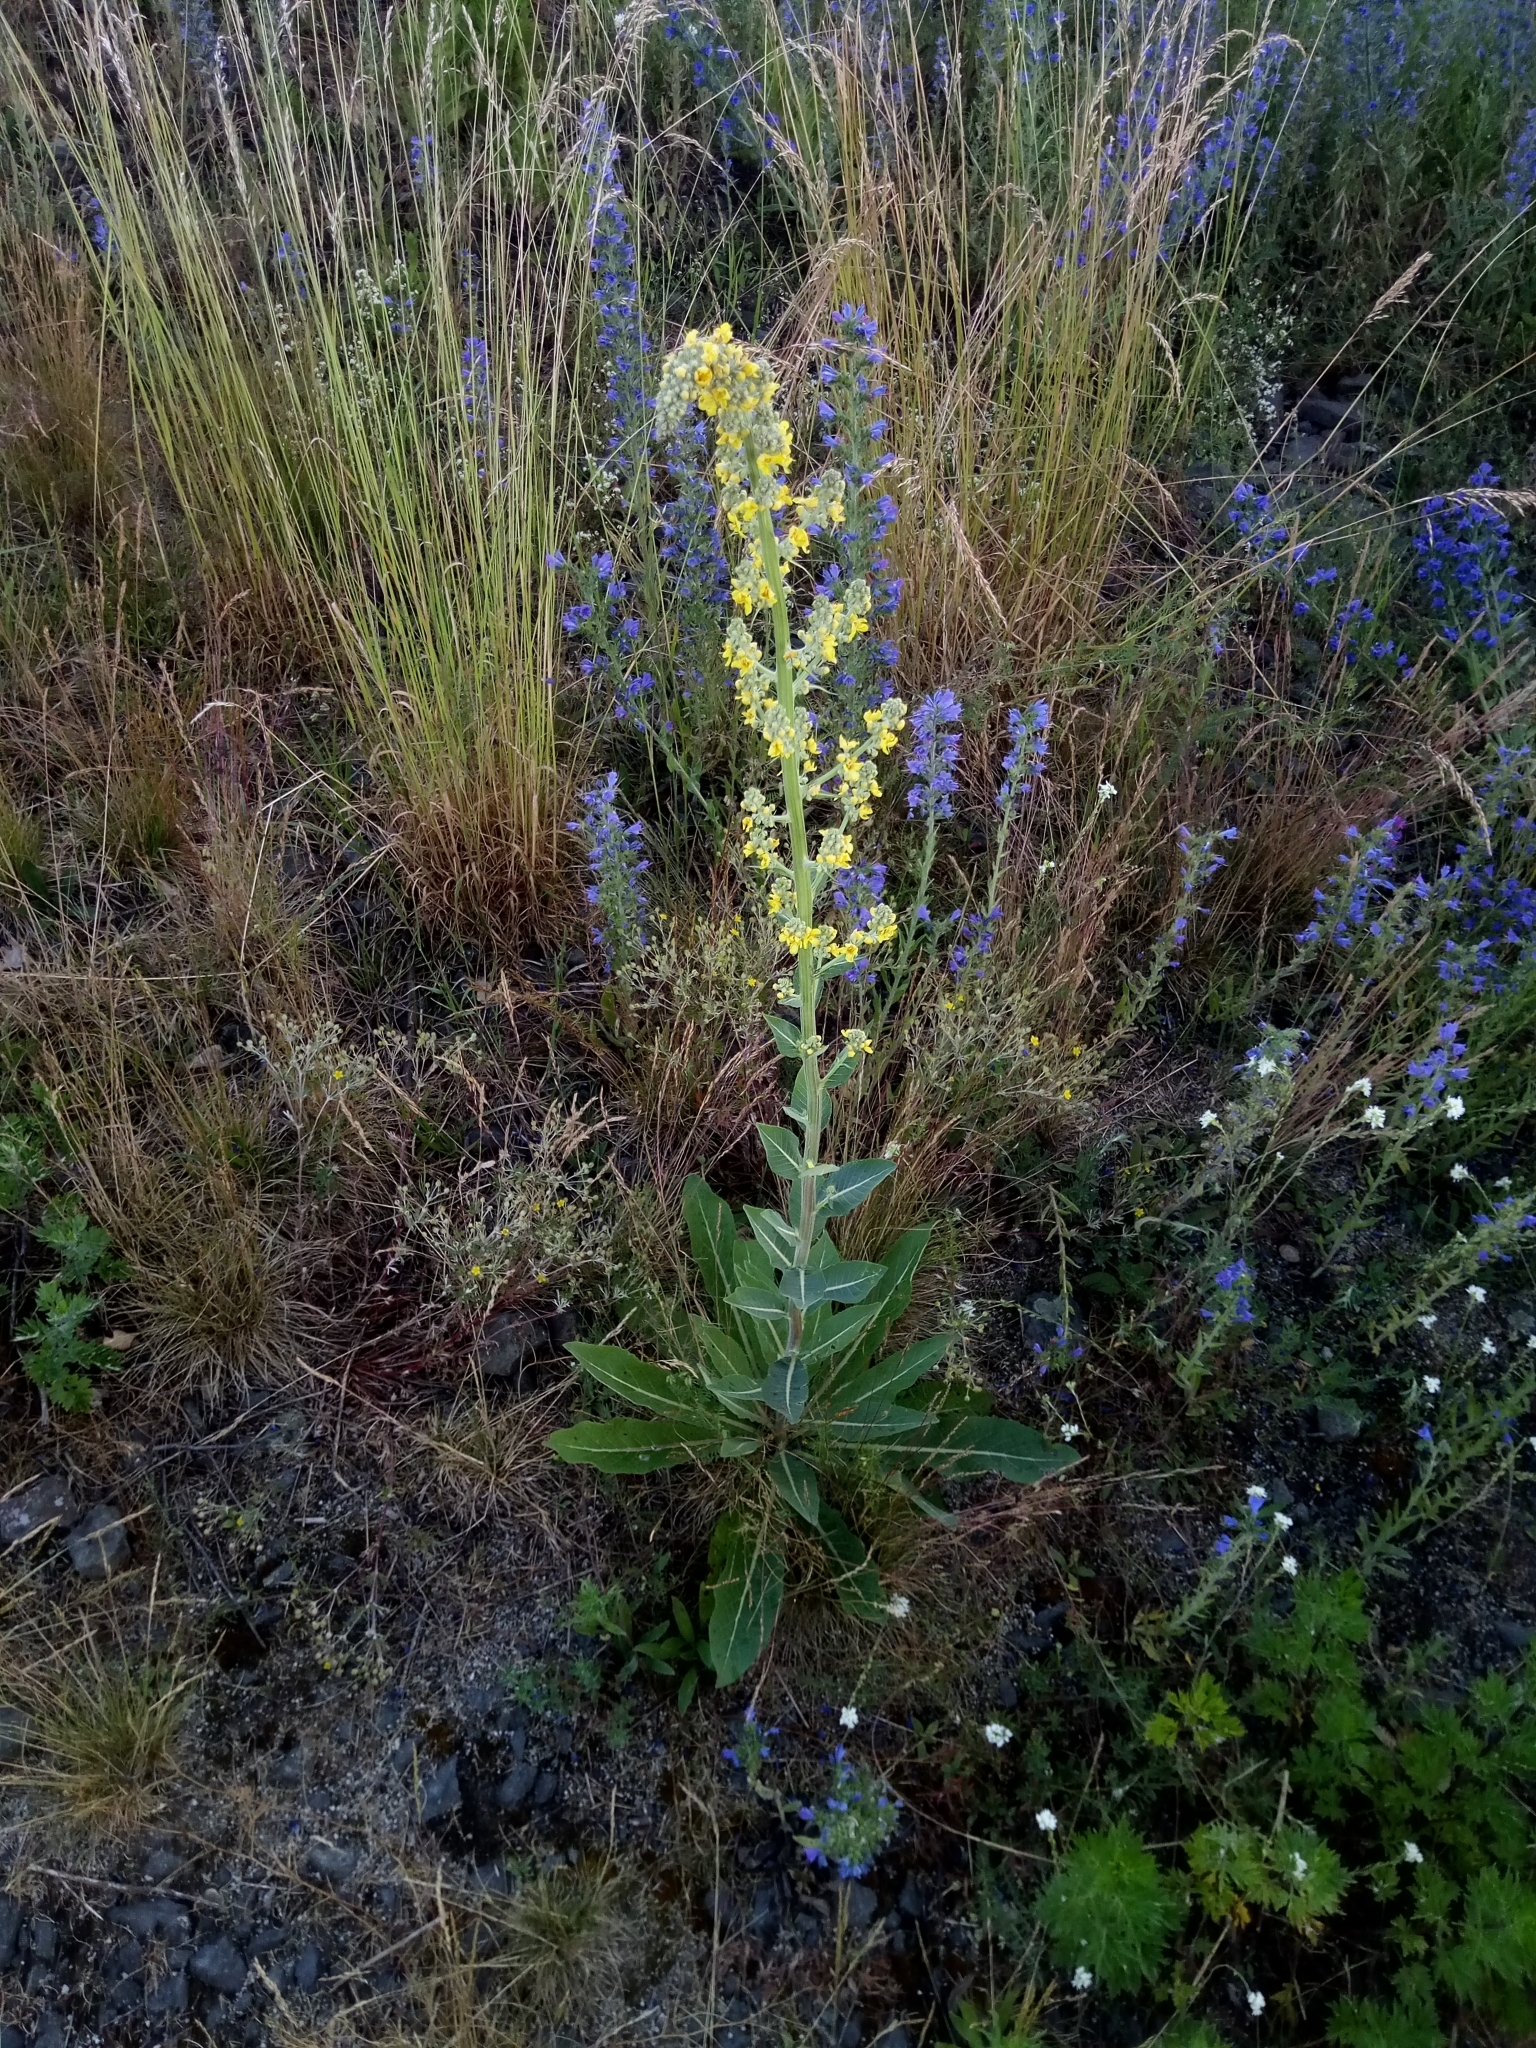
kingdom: Plantae
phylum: Tracheophyta
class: Magnoliopsida
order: Lamiales
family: Scrophulariaceae
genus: Verbascum
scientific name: Verbascum lychnitis
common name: White mullein
